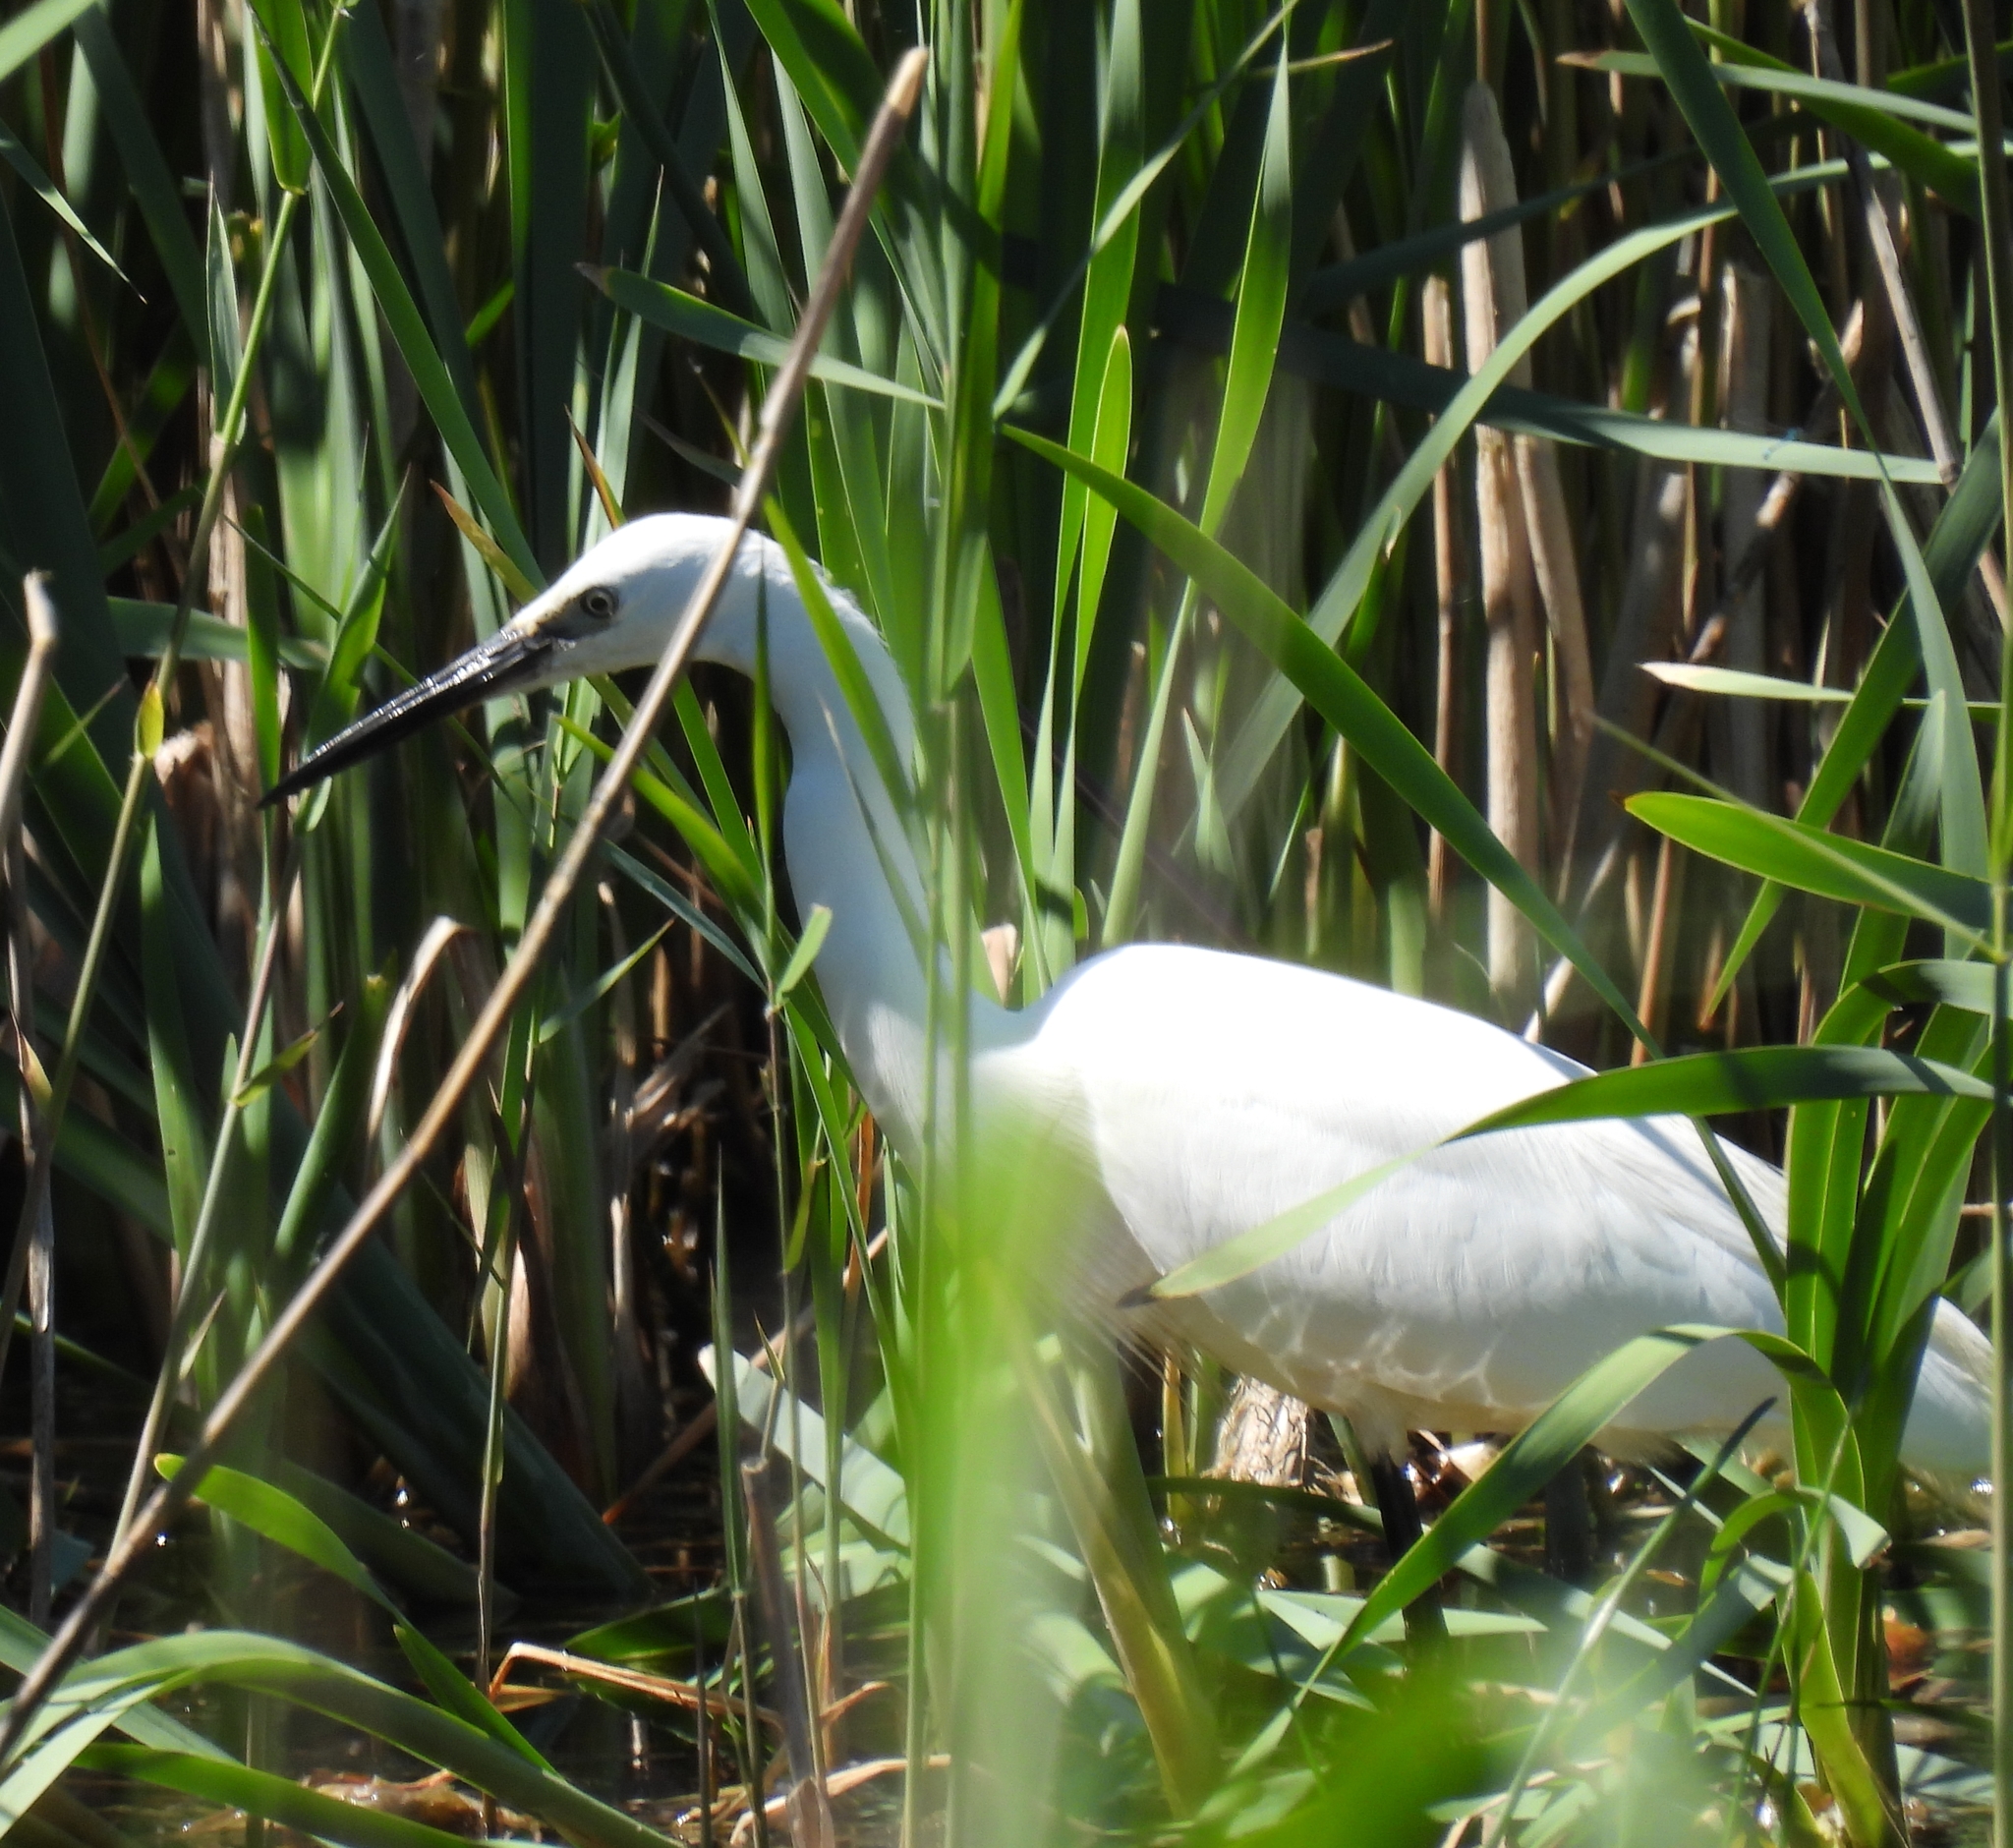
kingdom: Animalia
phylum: Chordata
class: Aves
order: Pelecaniformes
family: Ardeidae
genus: Egretta
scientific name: Egretta garzetta
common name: Little egret
